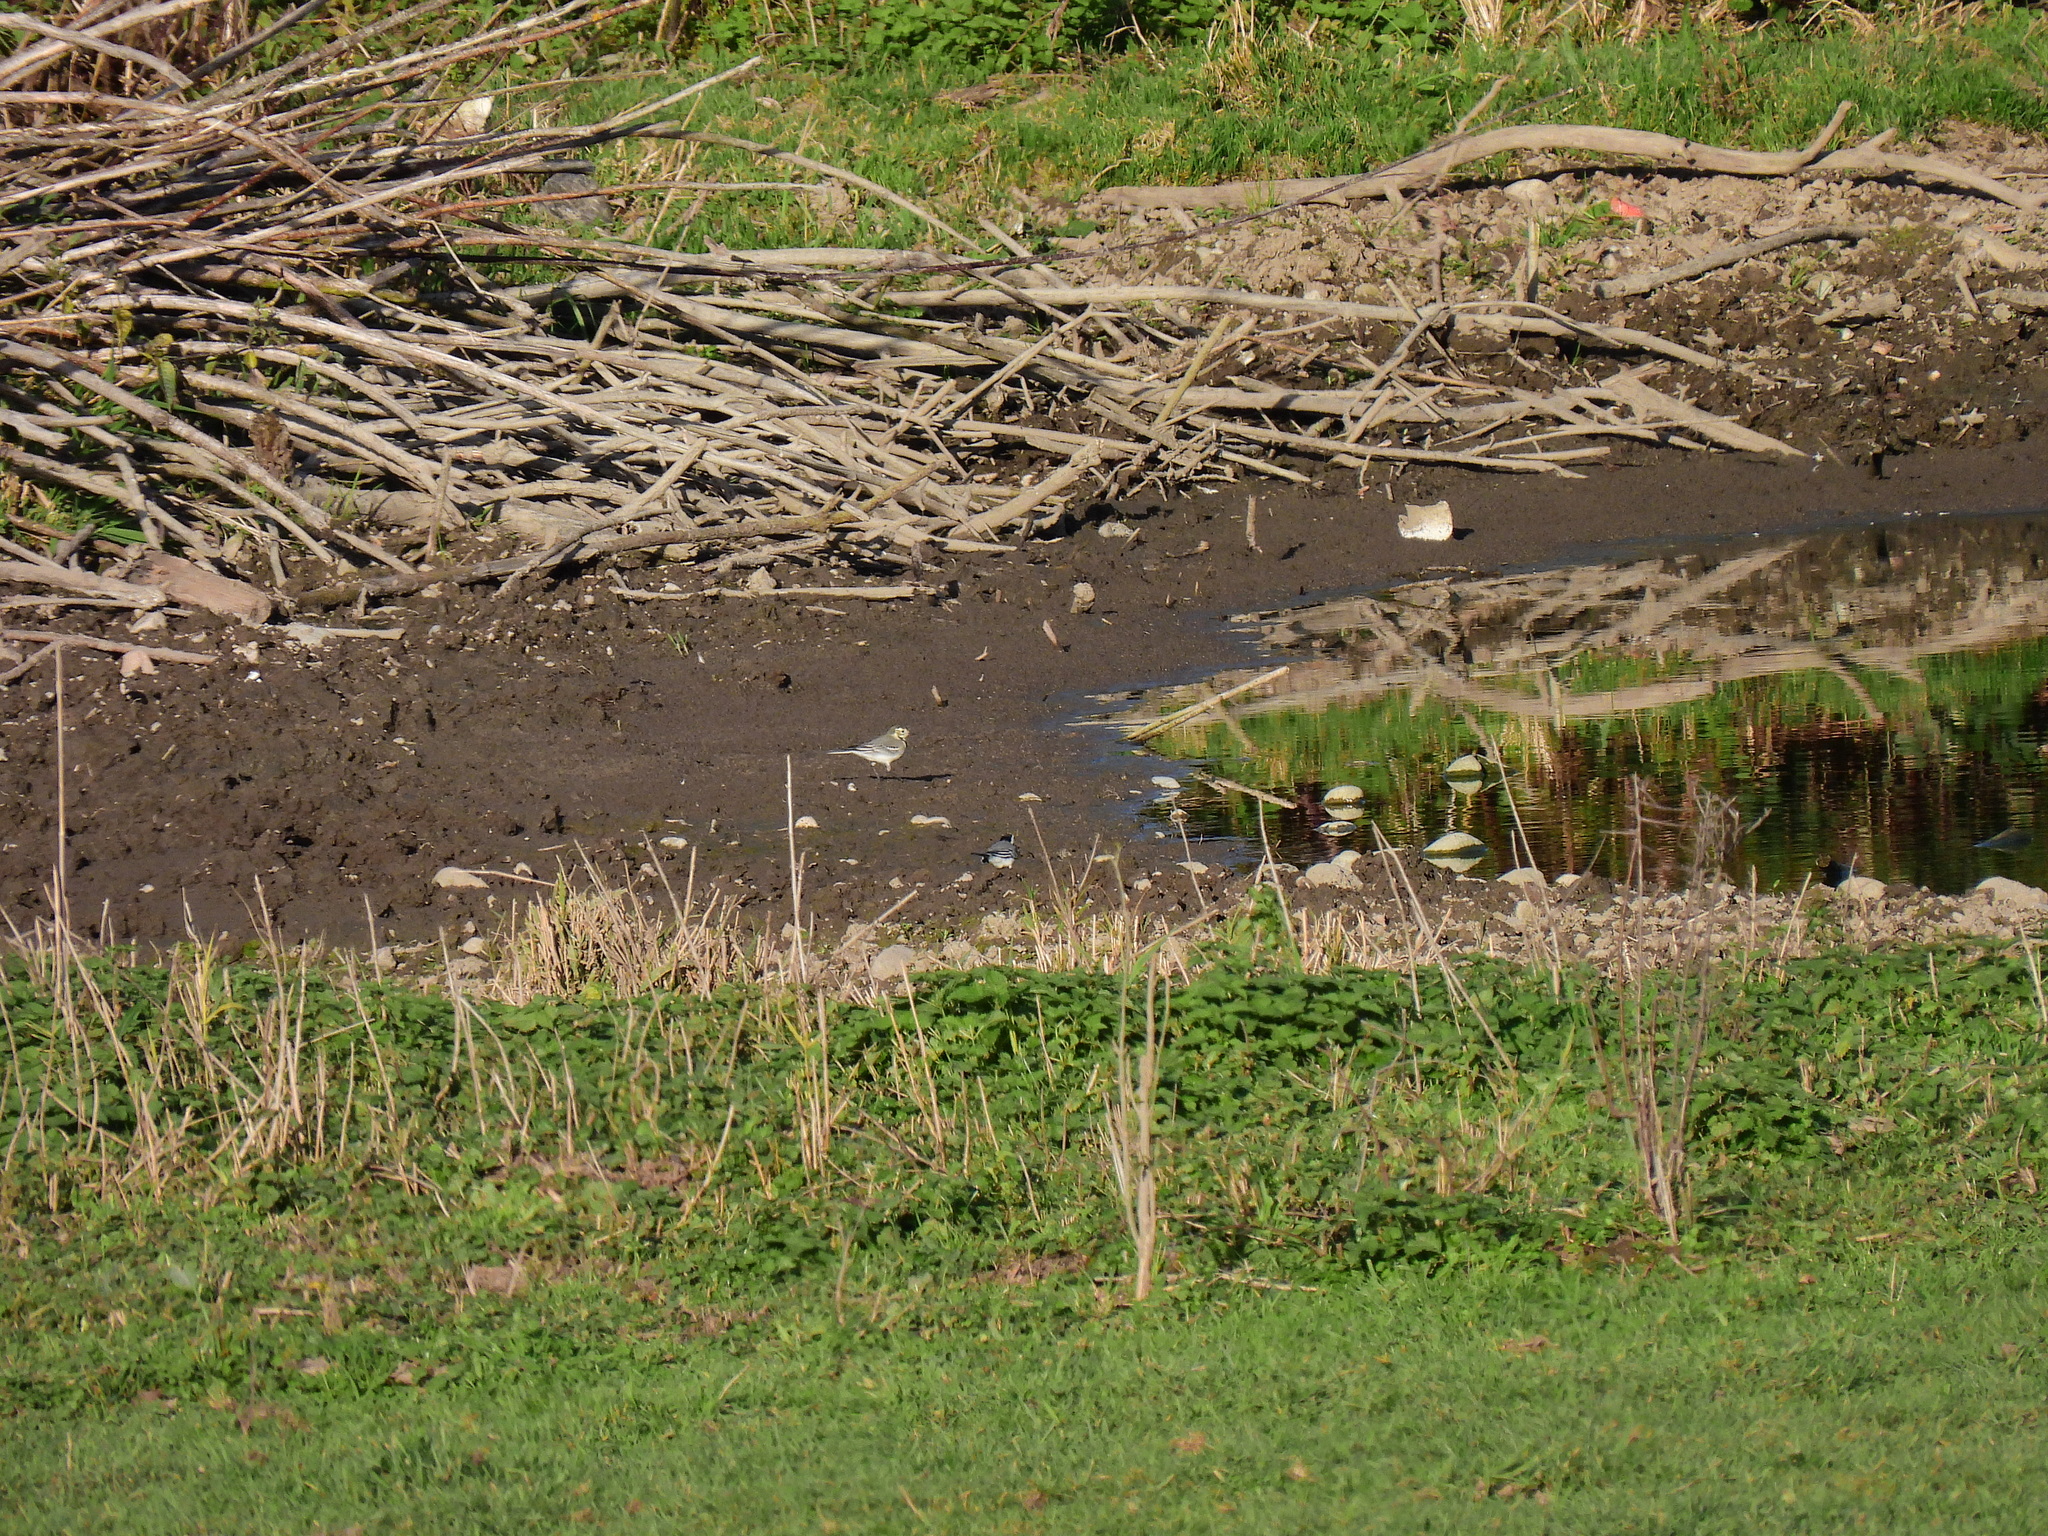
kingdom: Animalia
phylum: Chordata
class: Aves
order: Passeriformes
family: Motacillidae
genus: Motacilla
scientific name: Motacilla alba
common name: White wagtail
